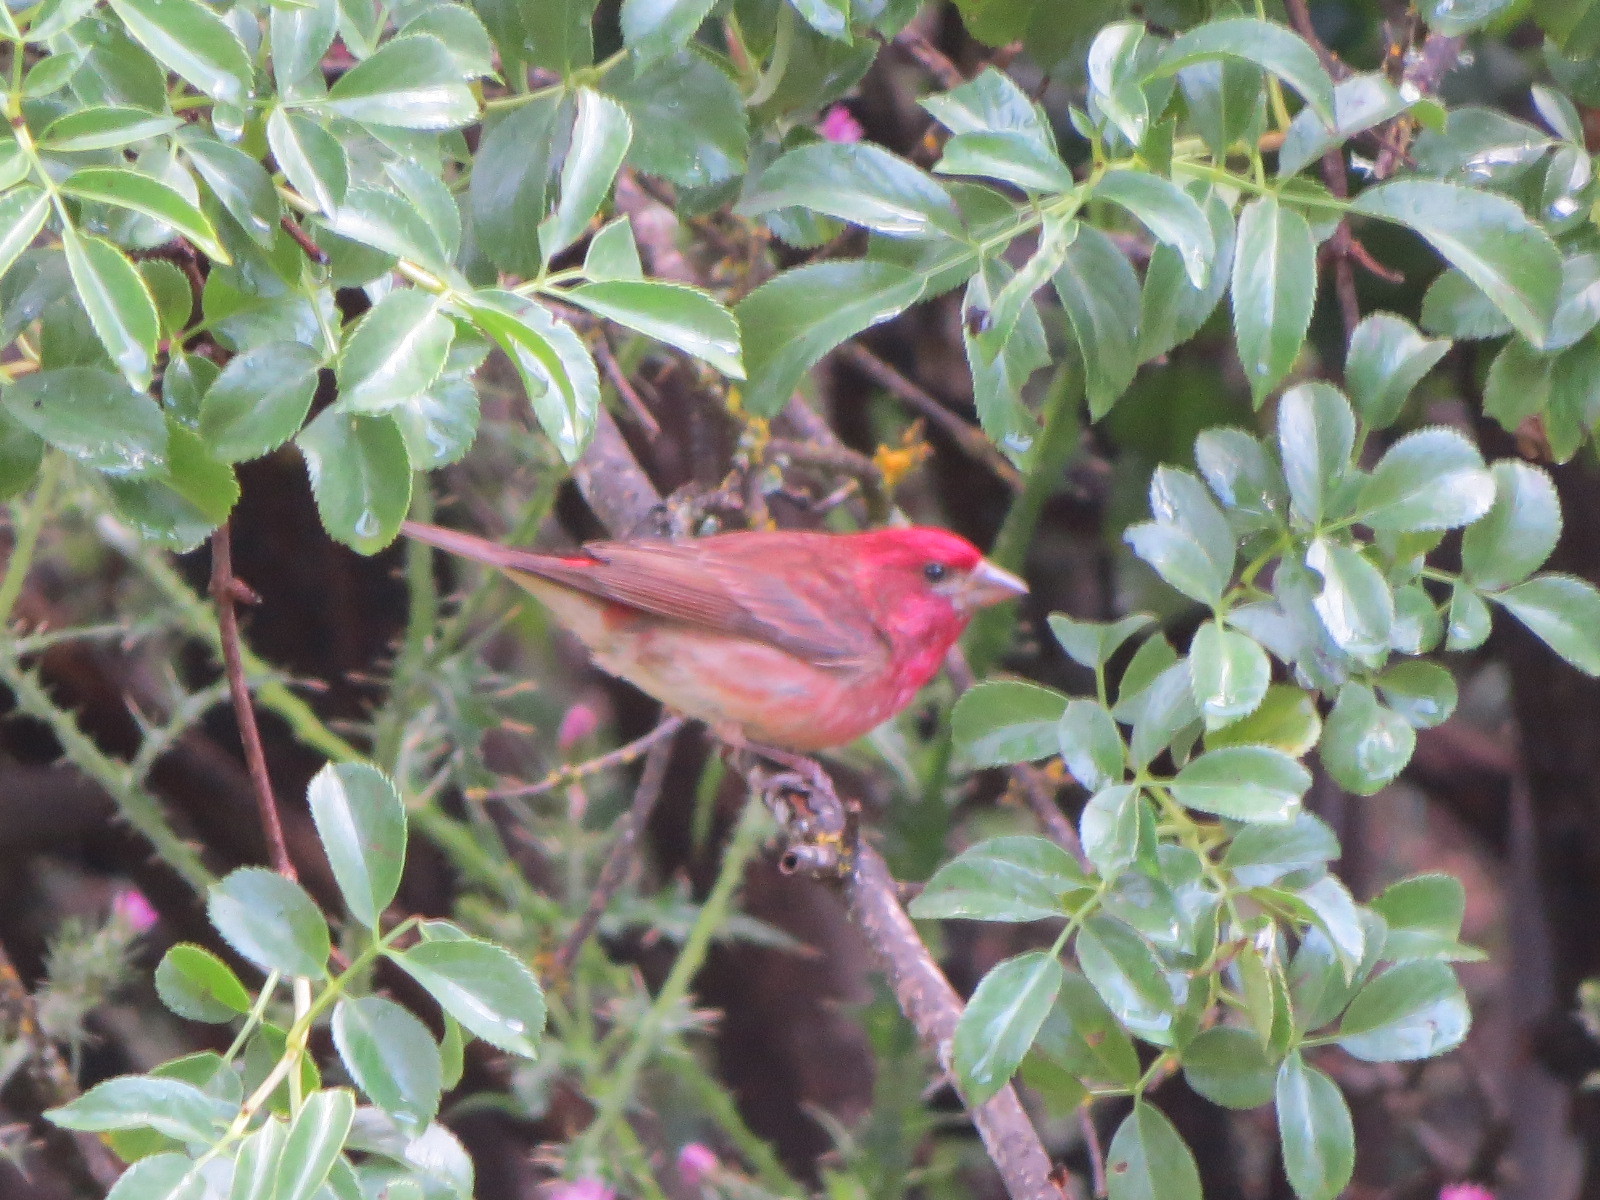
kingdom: Animalia
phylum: Chordata
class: Aves
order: Passeriformes
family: Fringillidae
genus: Haemorhous
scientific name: Haemorhous purpureus
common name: Purple finch
